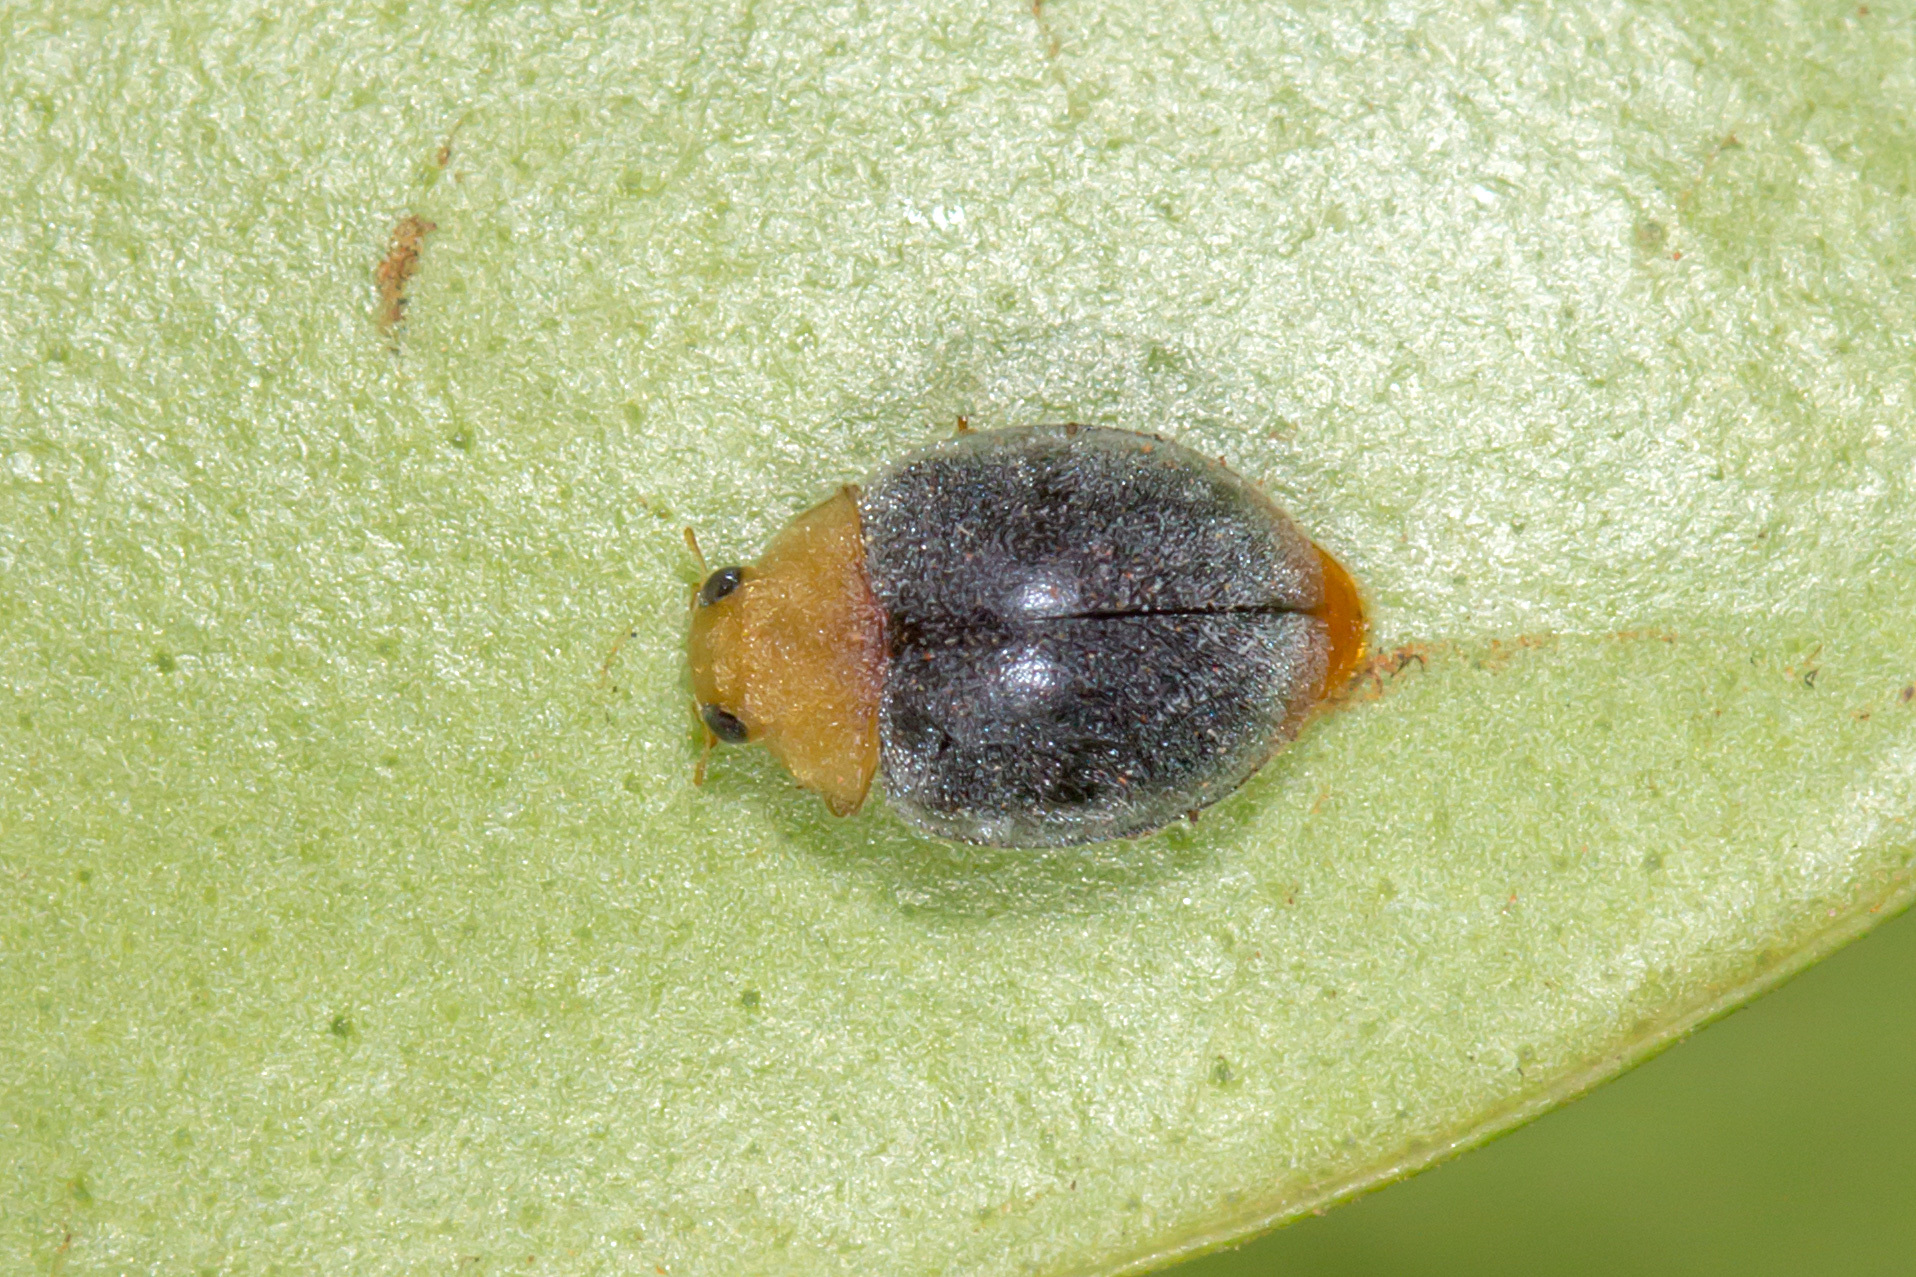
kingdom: Animalia
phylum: Arthropoda
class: Insecta
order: Coleoptera
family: Coccinellidae
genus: Cryptolaemus
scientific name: Cryptolaemus montrouzieri
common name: Mealybug destroyer
